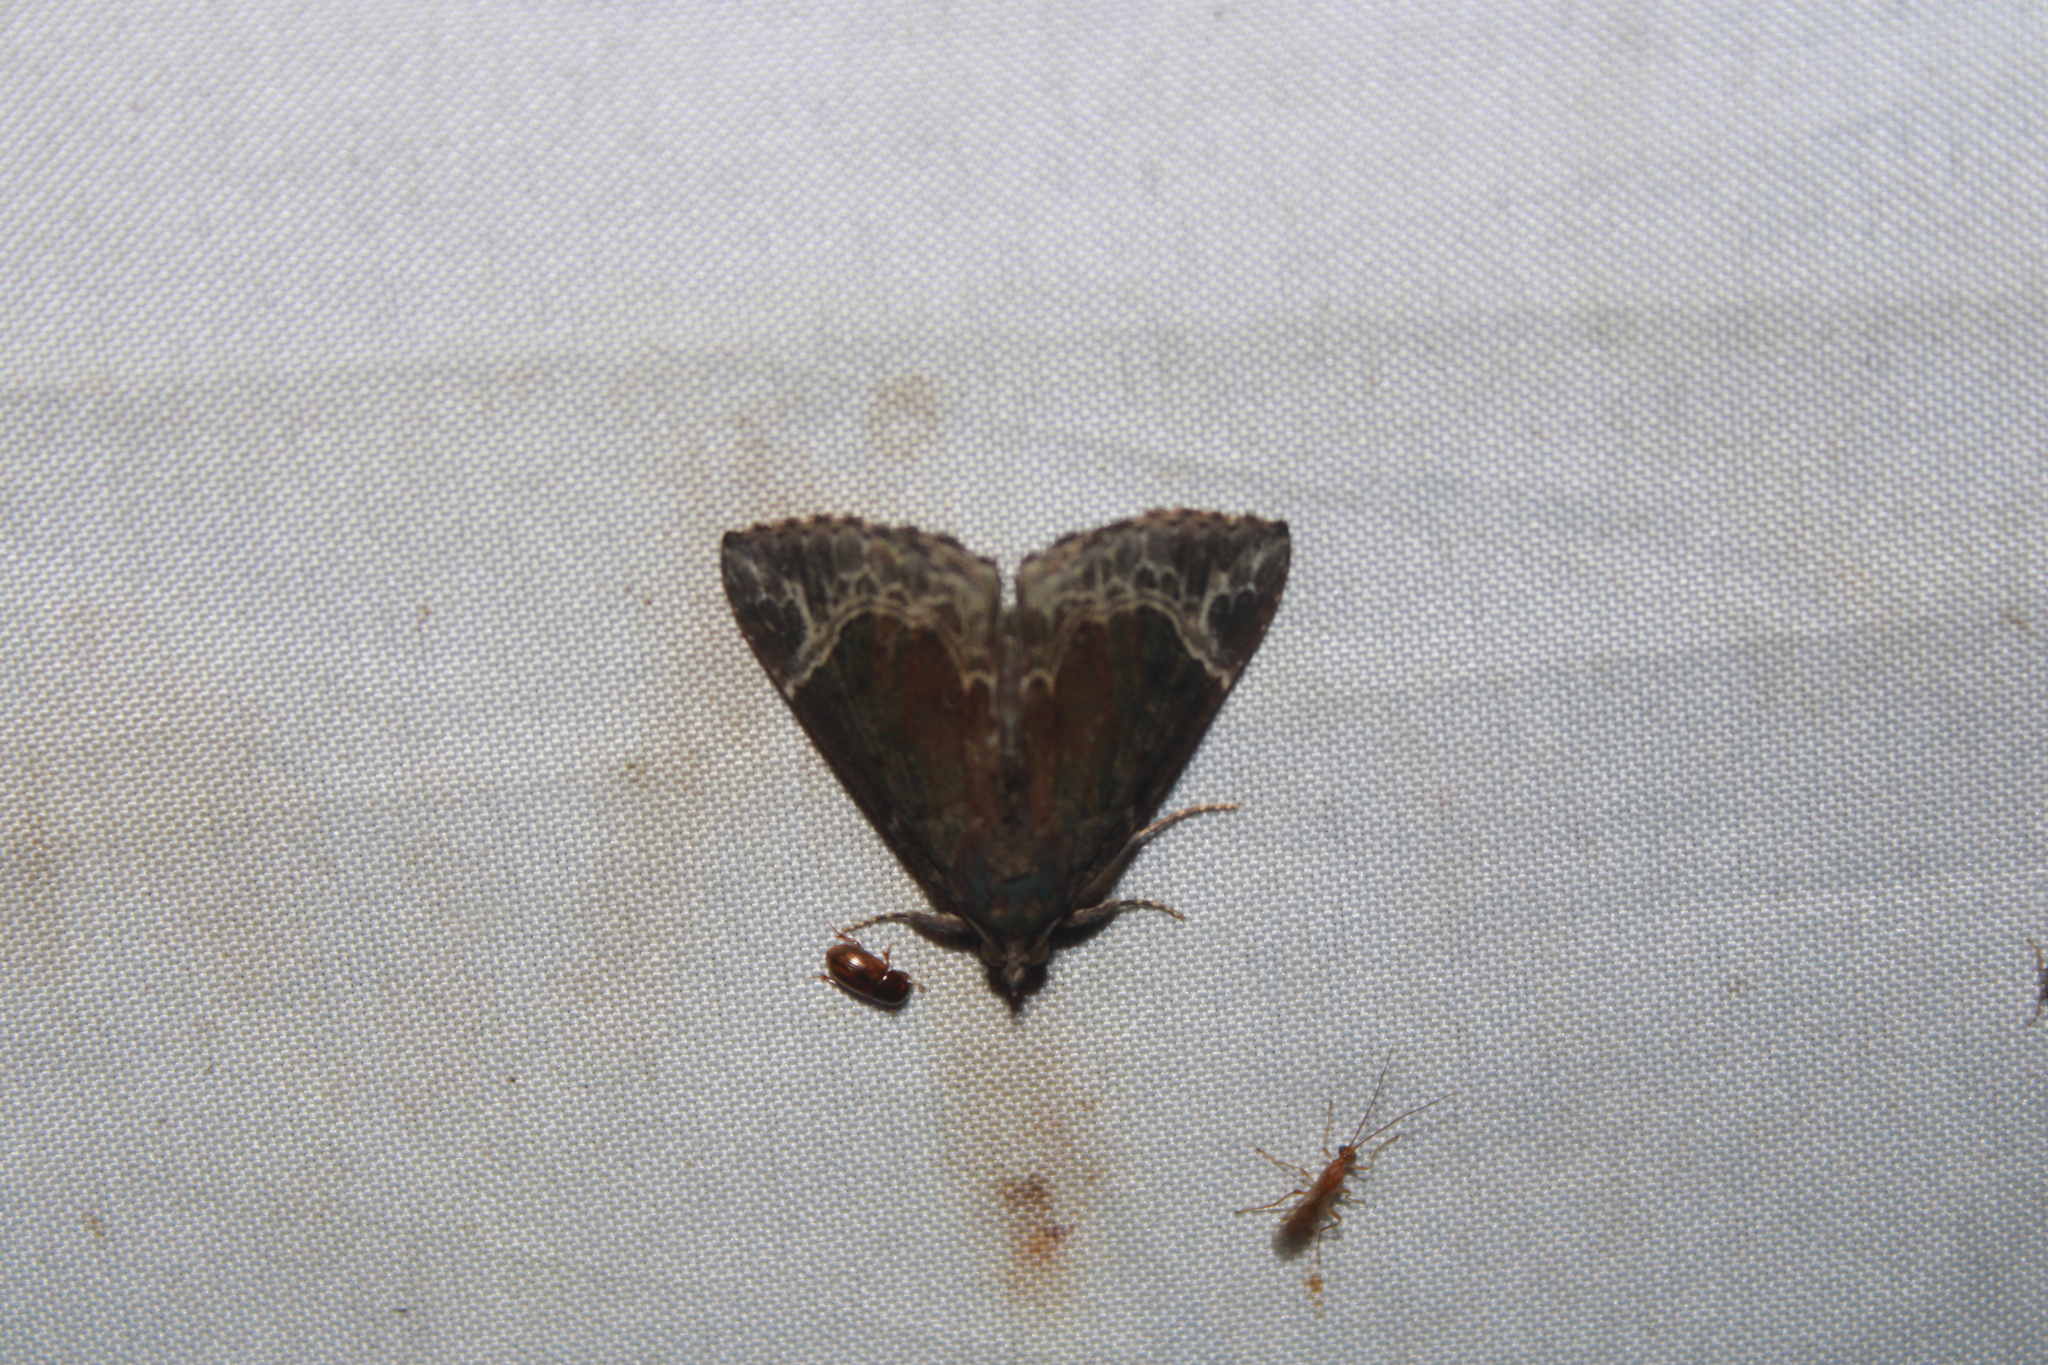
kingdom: Animalia
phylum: Arthropoda
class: Insecta
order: Lepidoptera
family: Erebidae
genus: Hypena
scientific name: Hypena abalienalis
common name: White-lined snout
